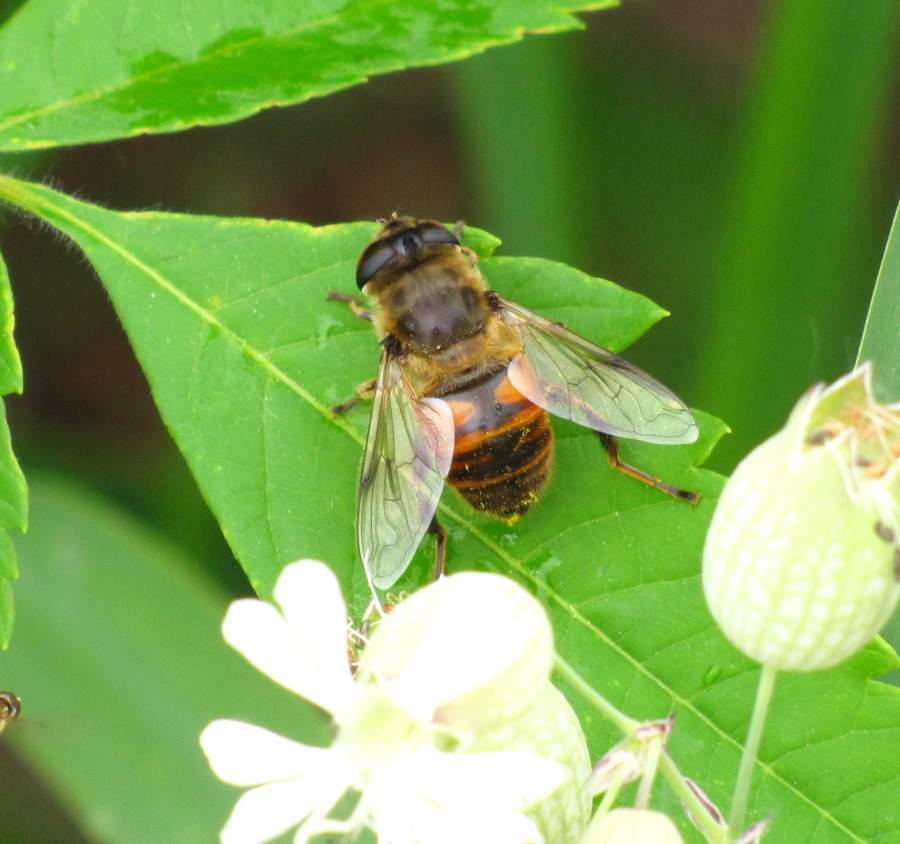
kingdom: Animalia
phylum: Arthropoda
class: Insecta
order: Diptera
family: Syrphidae
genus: Eristalis
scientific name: Eristalis tenax
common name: Drone fly
